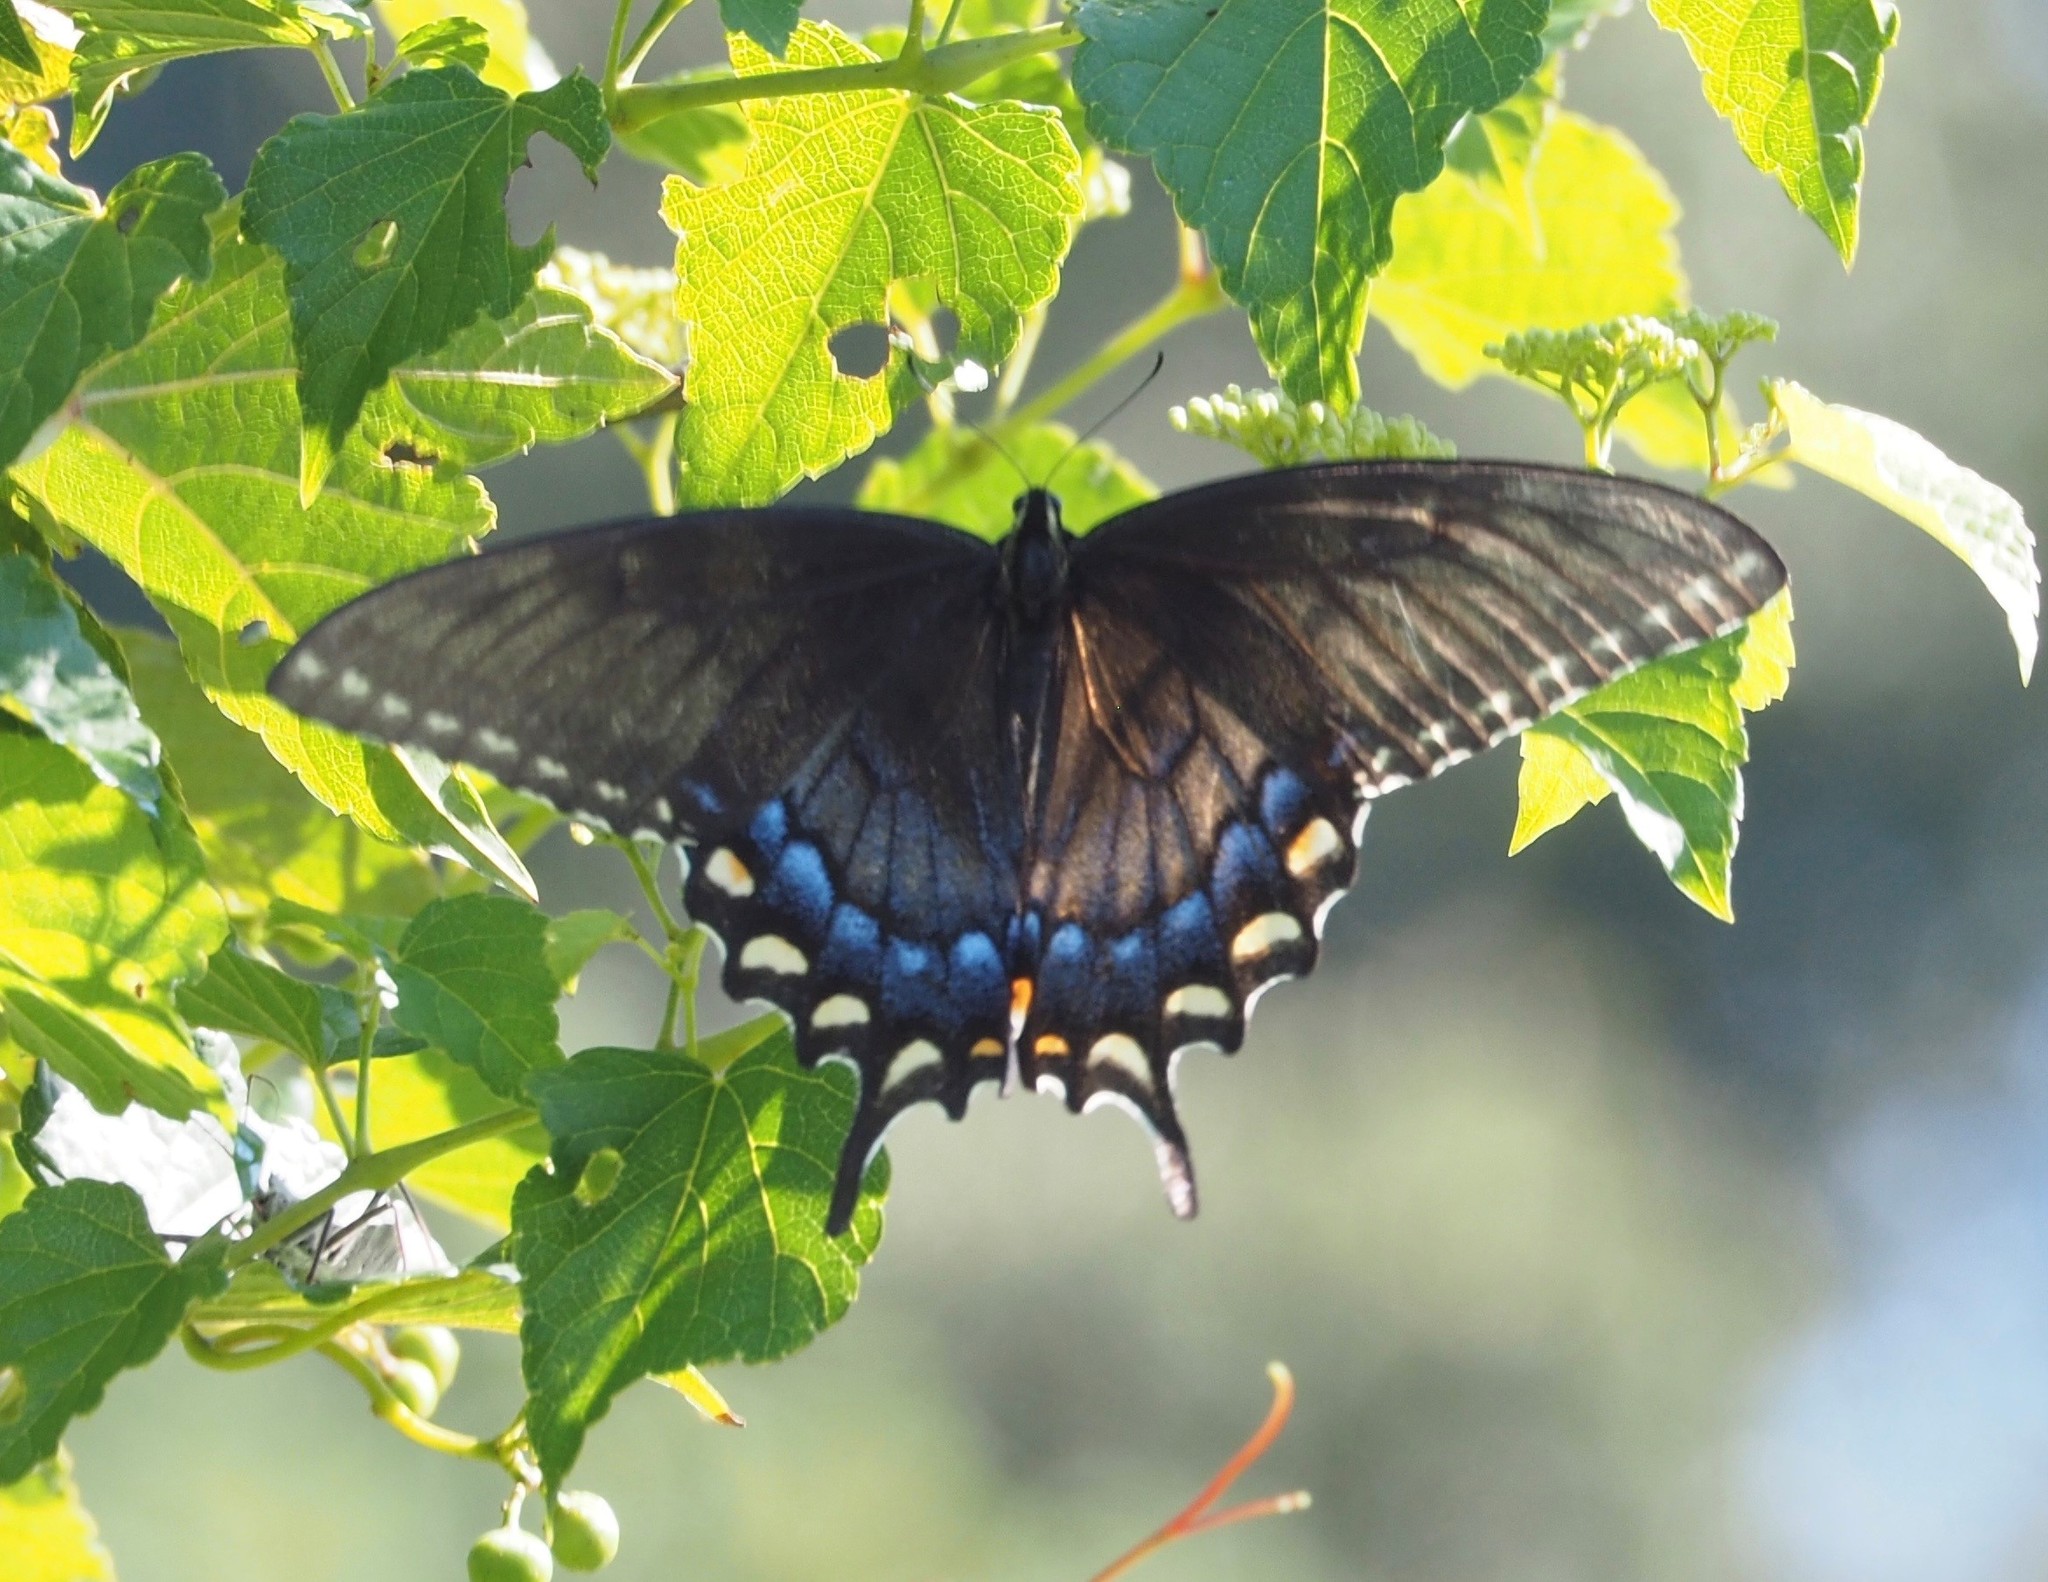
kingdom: Animalia
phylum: Arthropoda
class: Insecta
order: Lepidoptera
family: Papilionidae
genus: Papilio
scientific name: Papilio glaucus
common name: Tiger swallowtail
